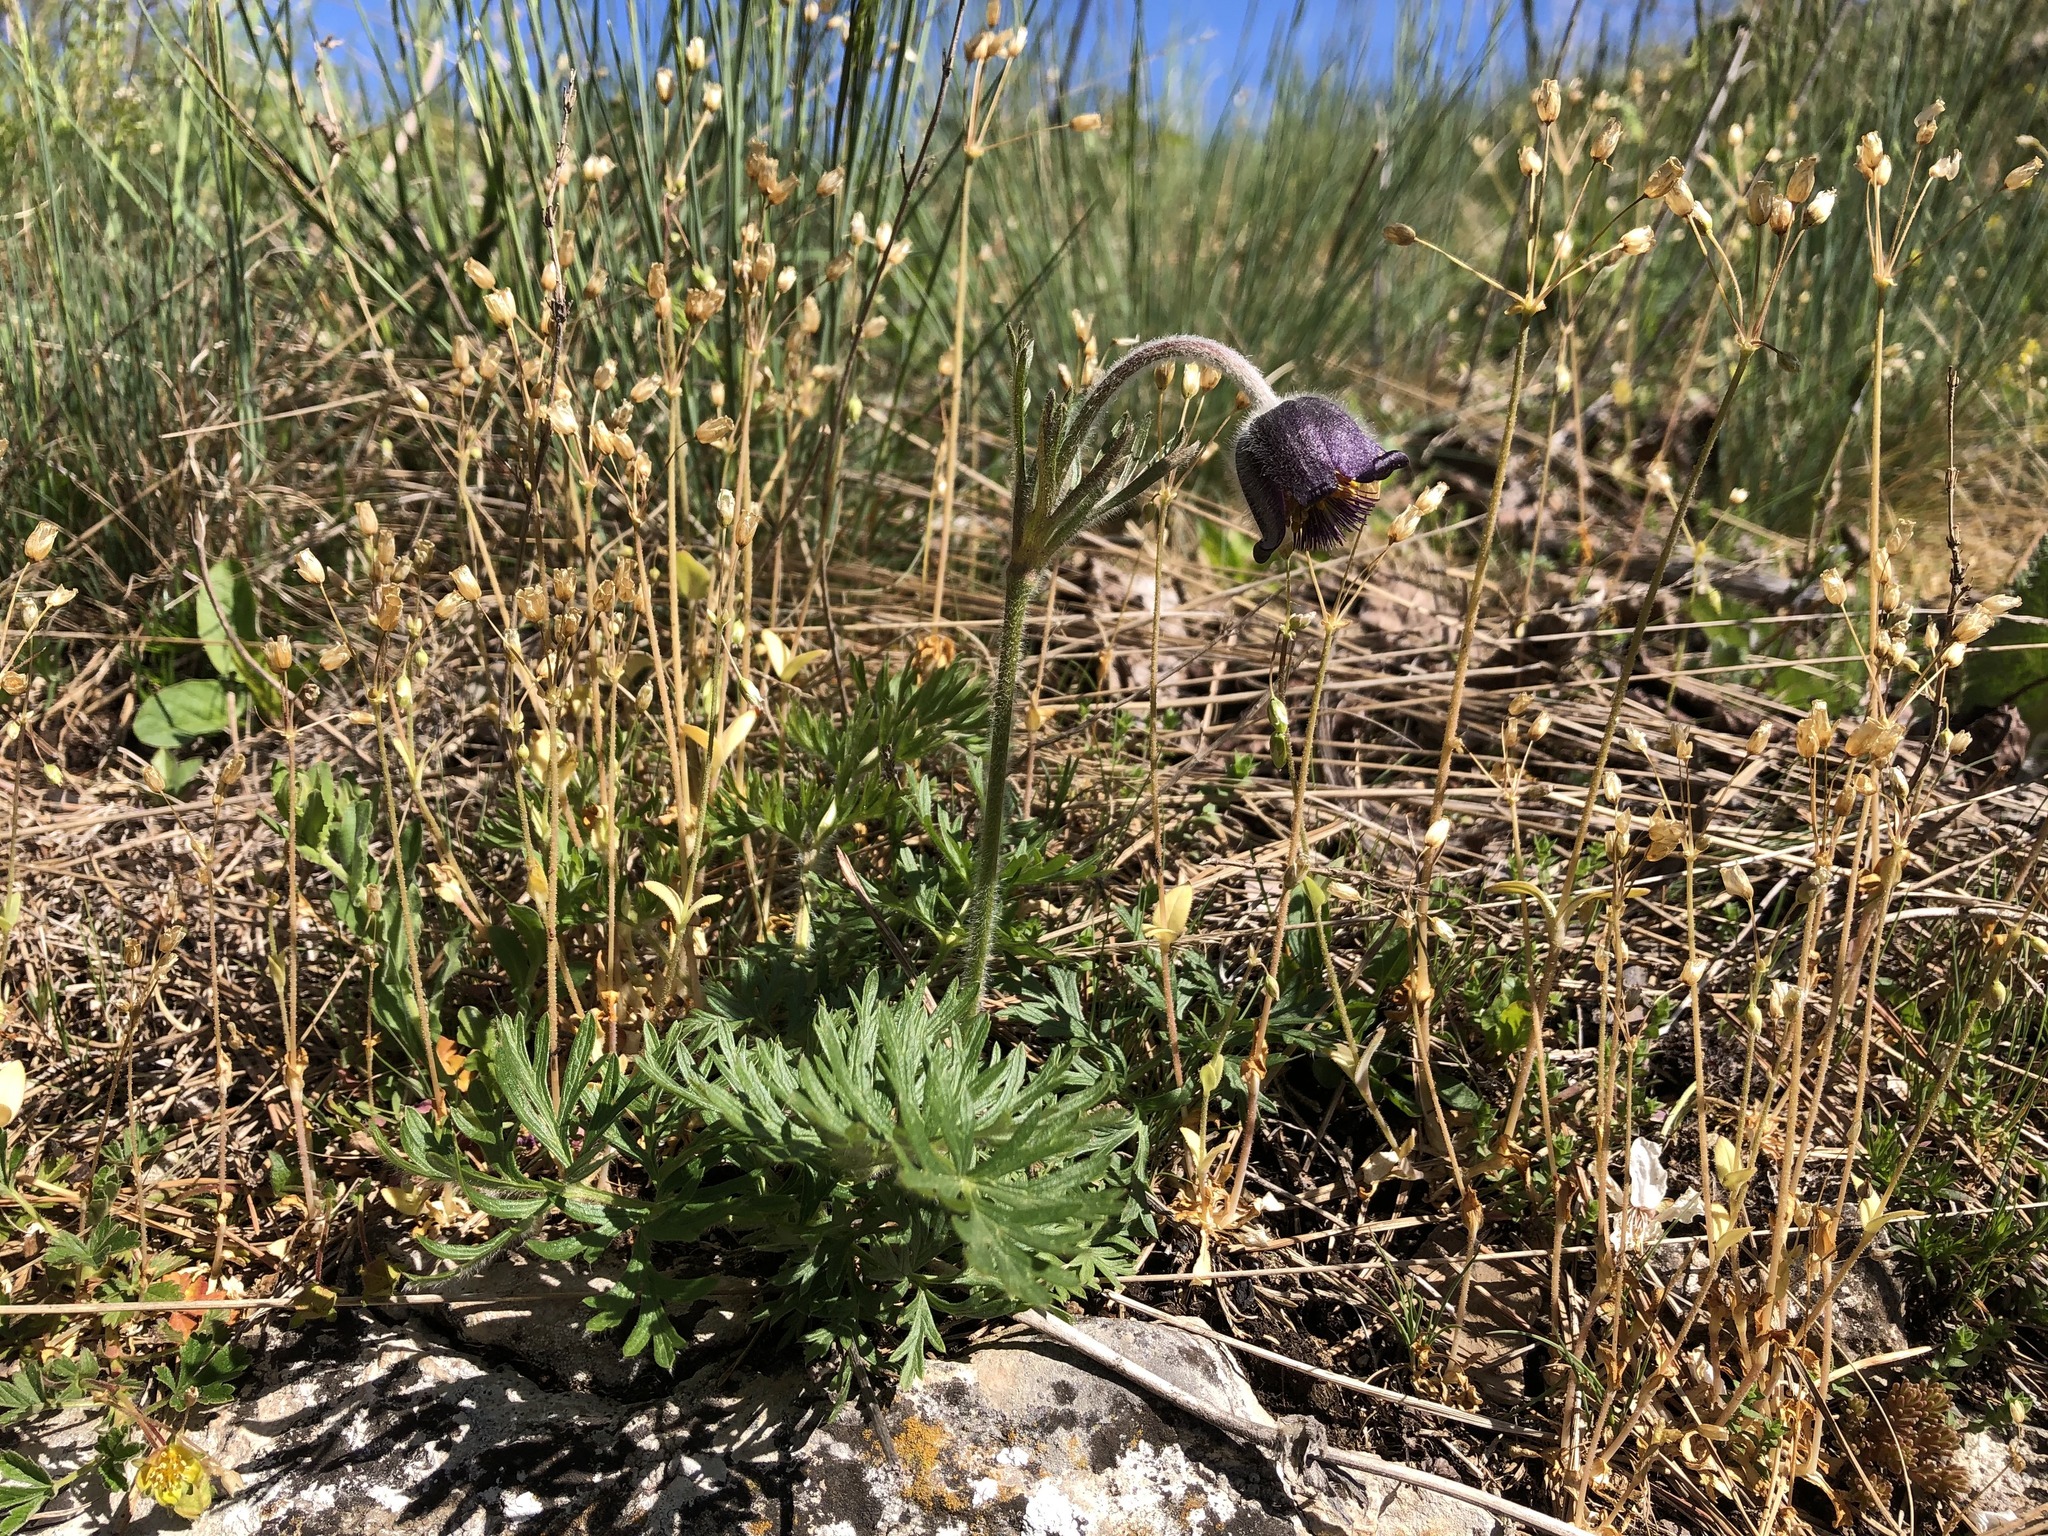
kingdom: Plantae
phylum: Tracheophyta
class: Magnoliopsida
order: Ranunculales
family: Ranunculaceae
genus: Pulsatilla
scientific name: Pulsatilla pratensis
